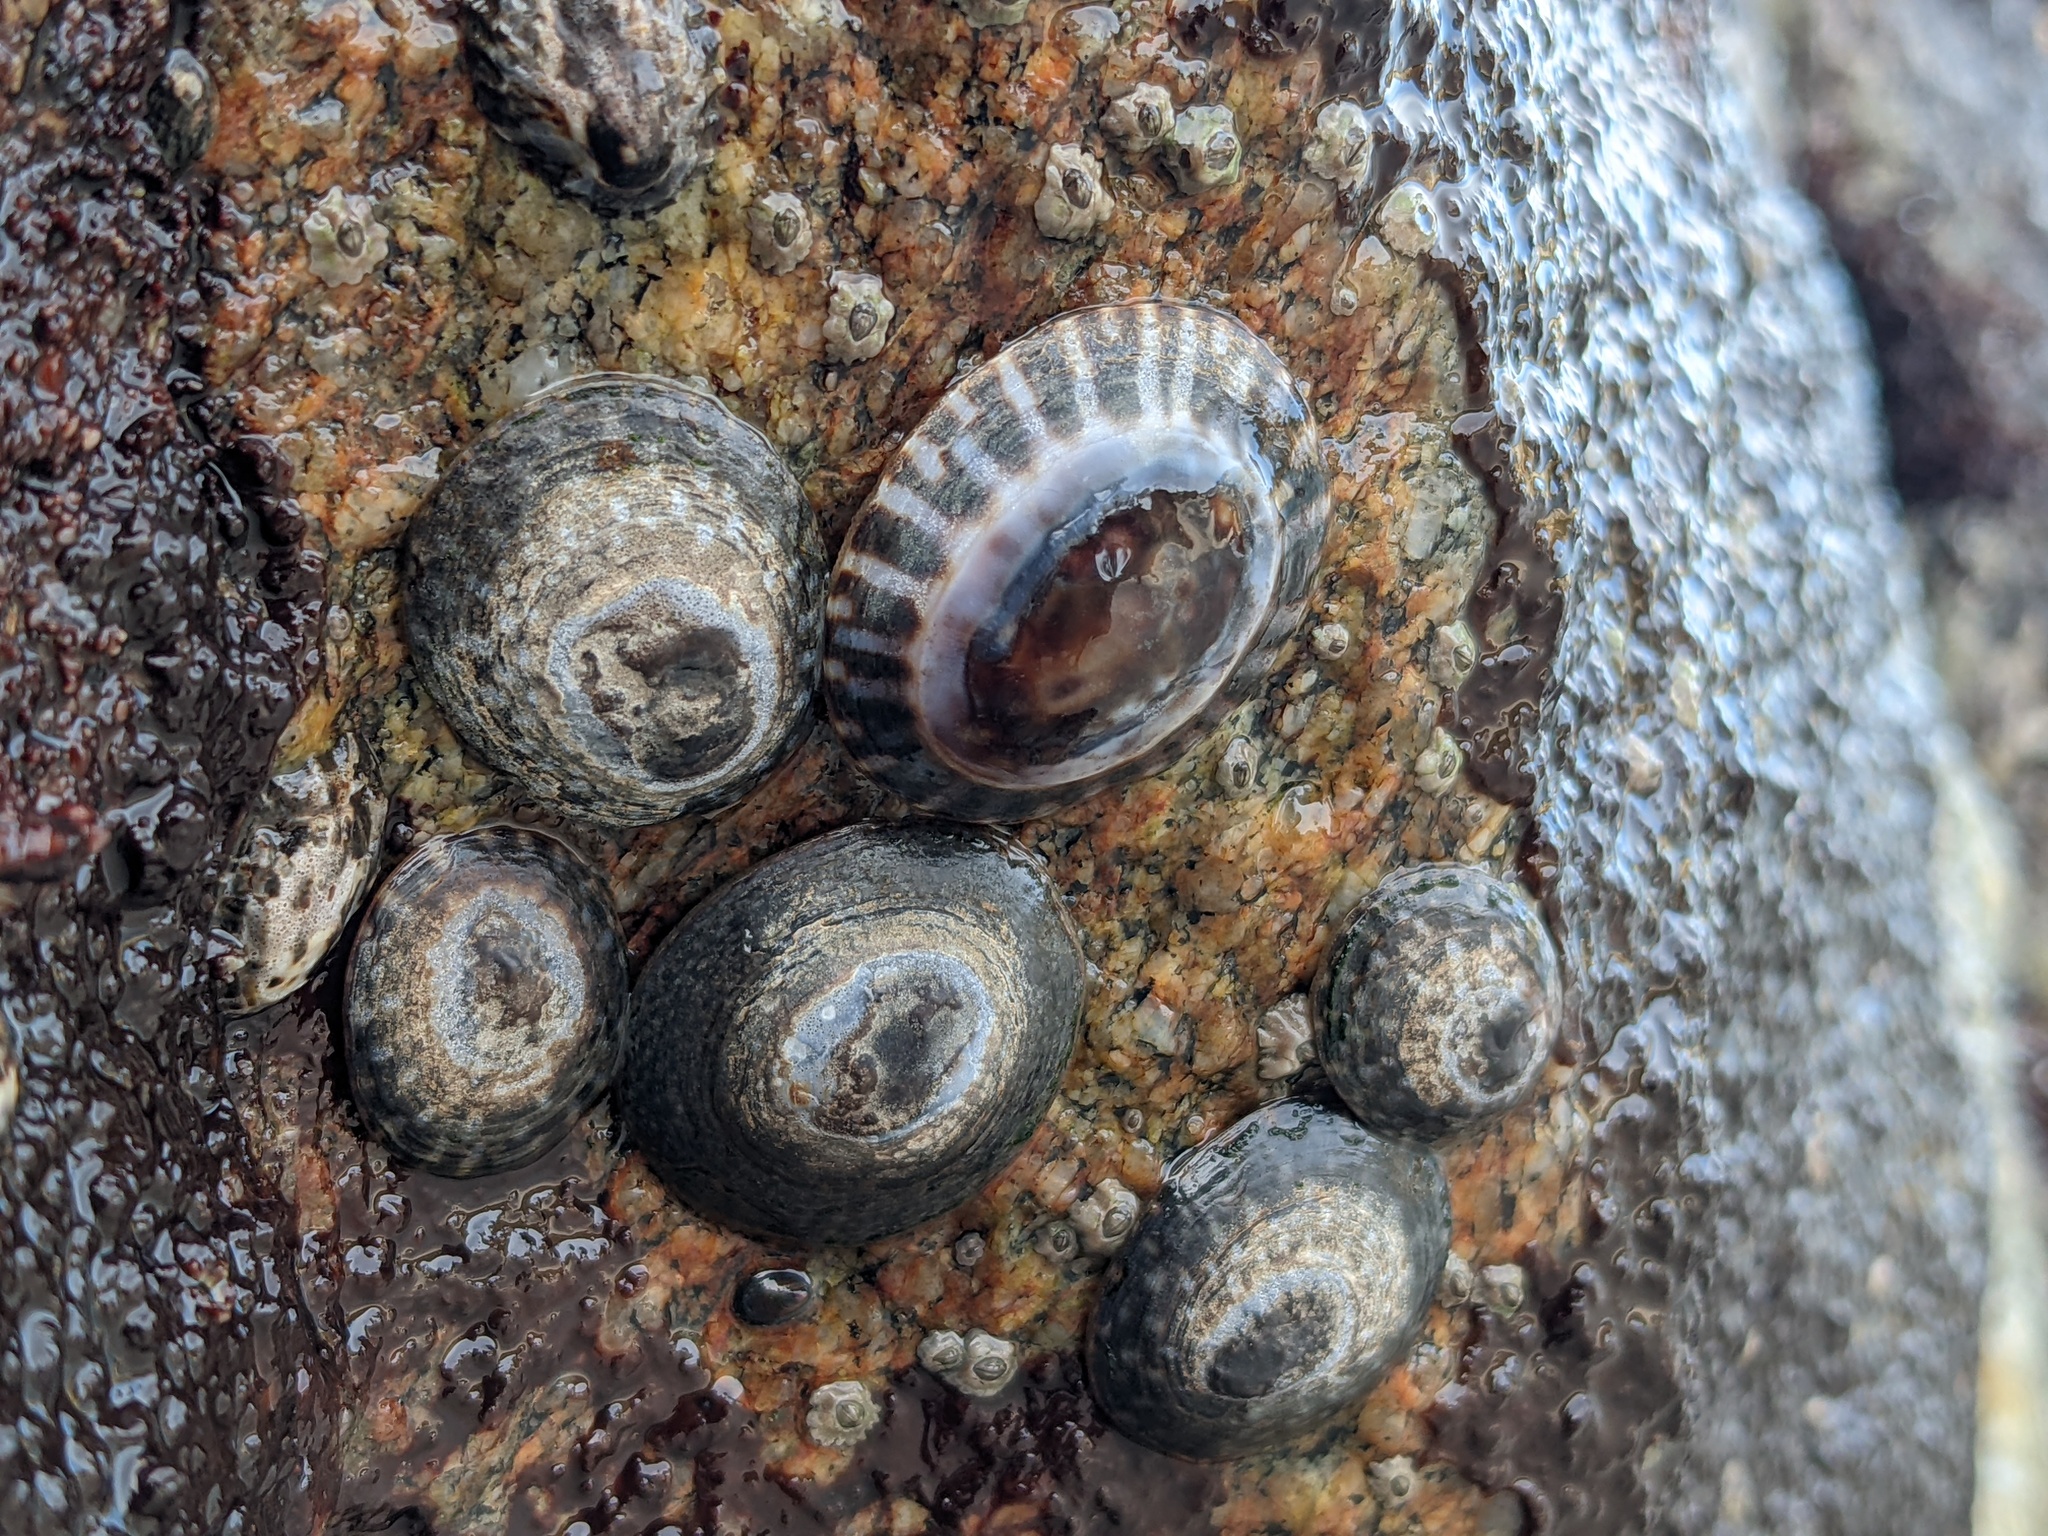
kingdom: Animalia
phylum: Mollusca
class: Gastropoda
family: Lottiidae
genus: Lottia
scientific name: Lottia scutum
